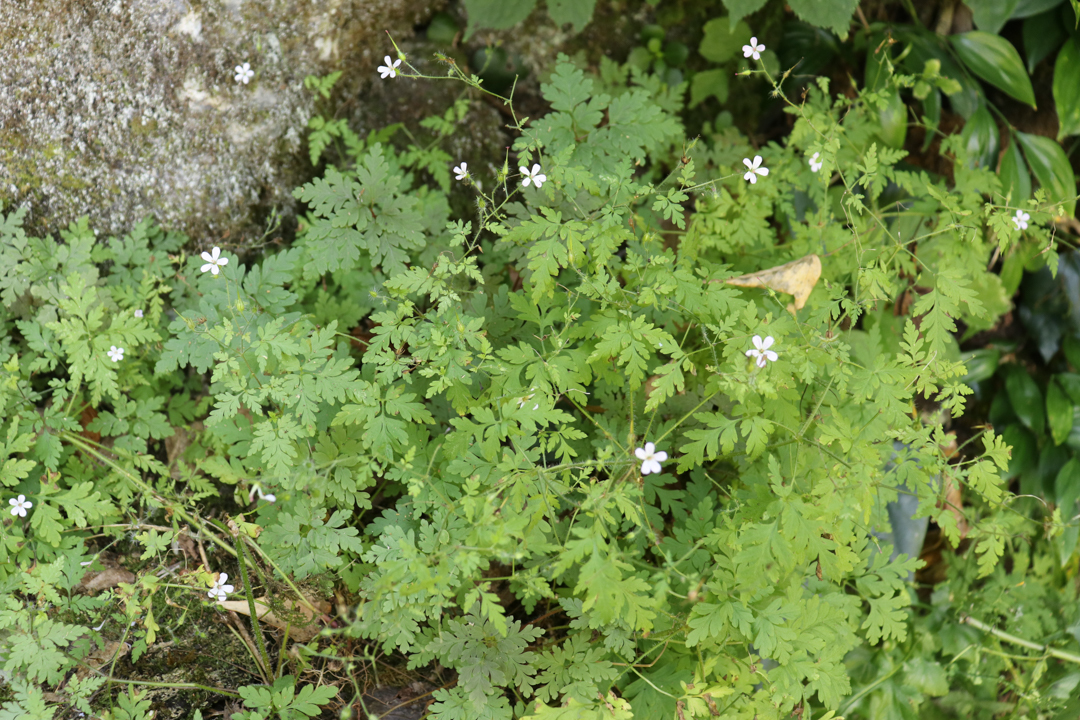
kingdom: Plantae
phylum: Tracheophyta
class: Magnoliopsida
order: Geraniales
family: Geraniaceae
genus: Geranium
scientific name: Geranium robertianum
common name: Herb-robert
